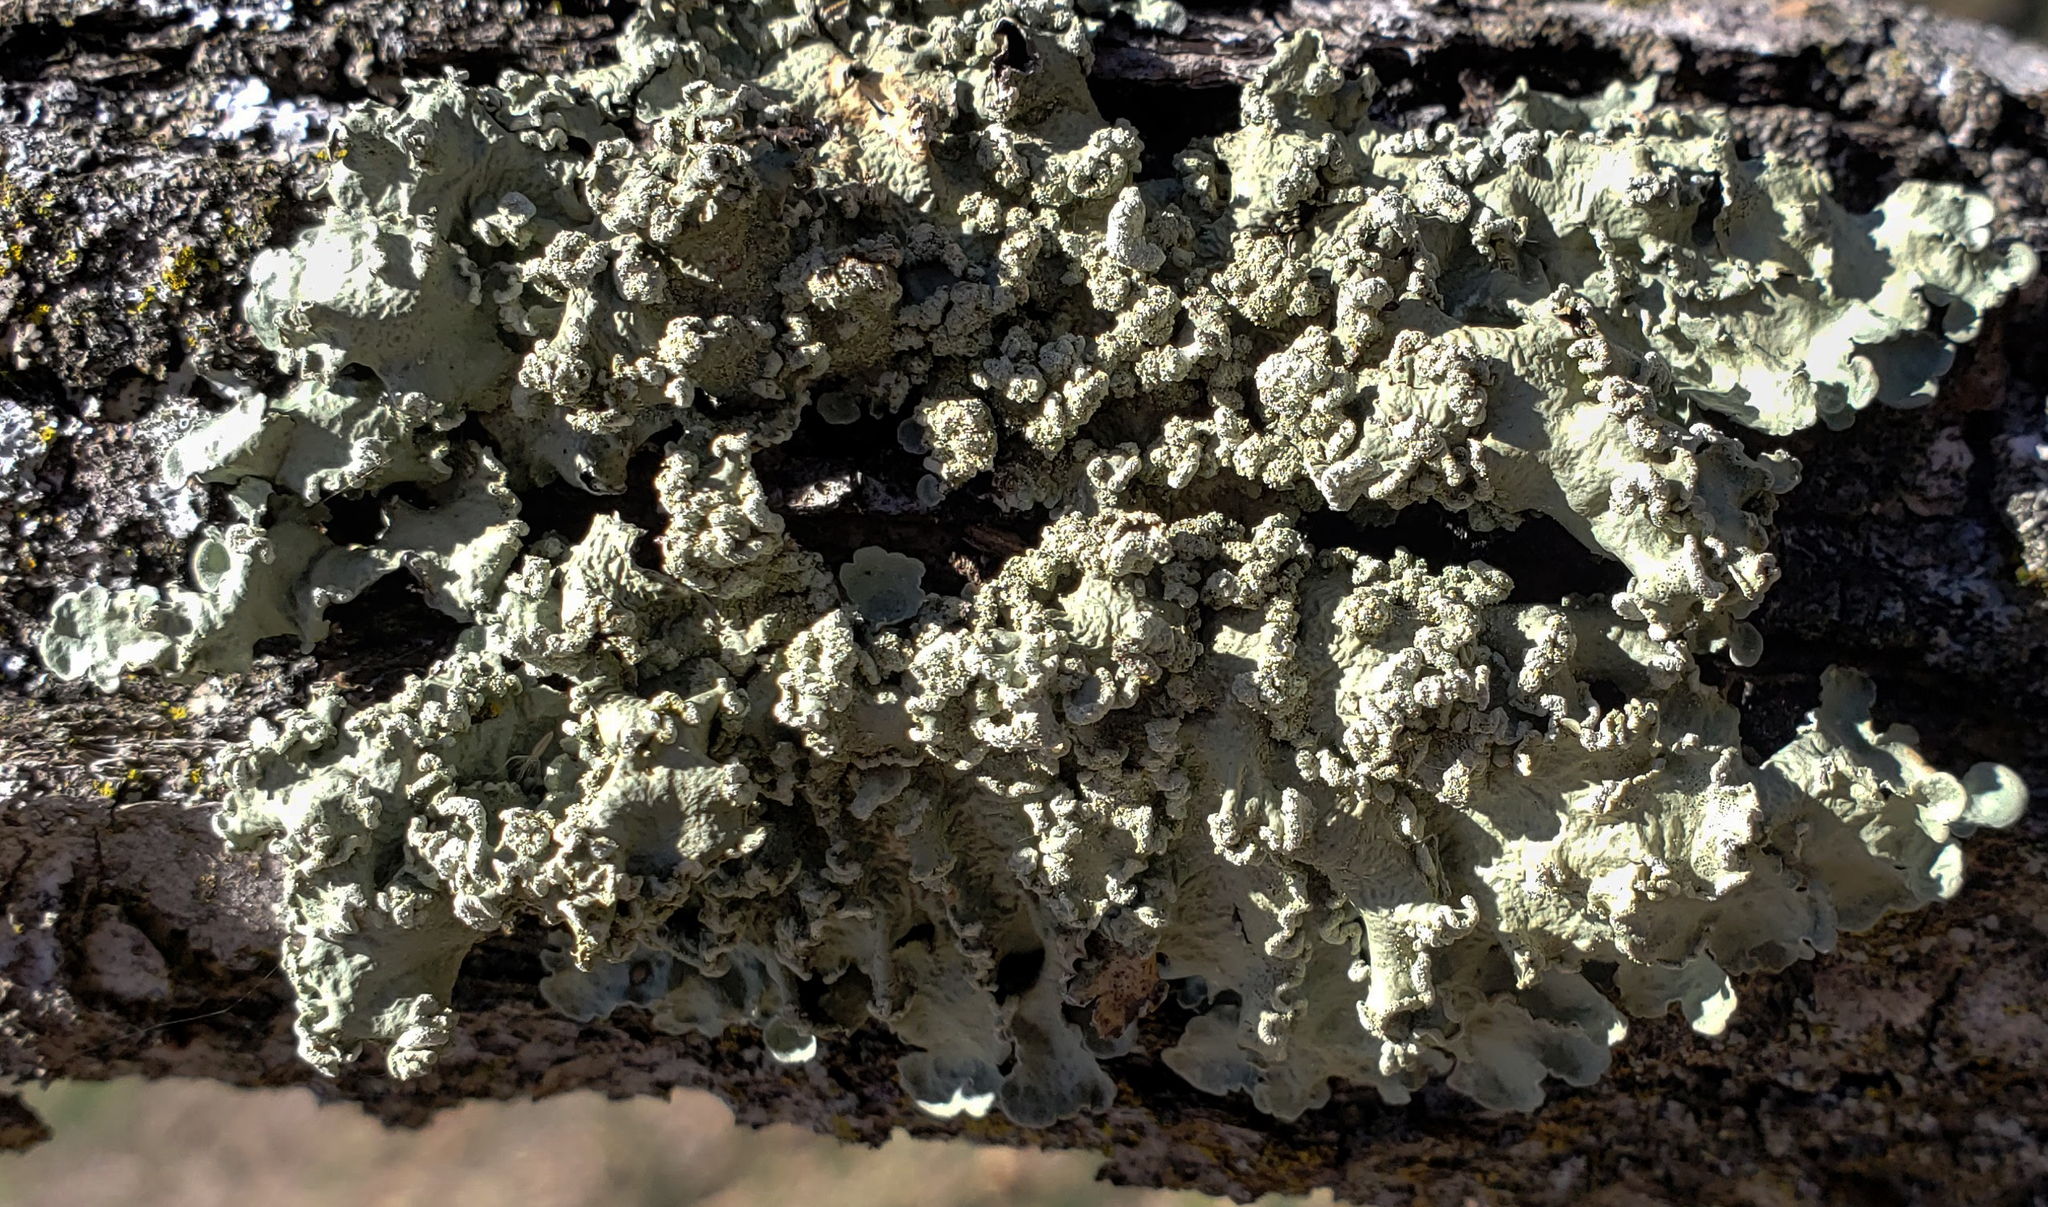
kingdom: Fungi
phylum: Ascomycota
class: Lecanoromycetes
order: Lecanorales
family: Parmeliaceae
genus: Flavopunctelia
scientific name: Flavopunctelia soredica
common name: Powder-edged speckled greenshield
